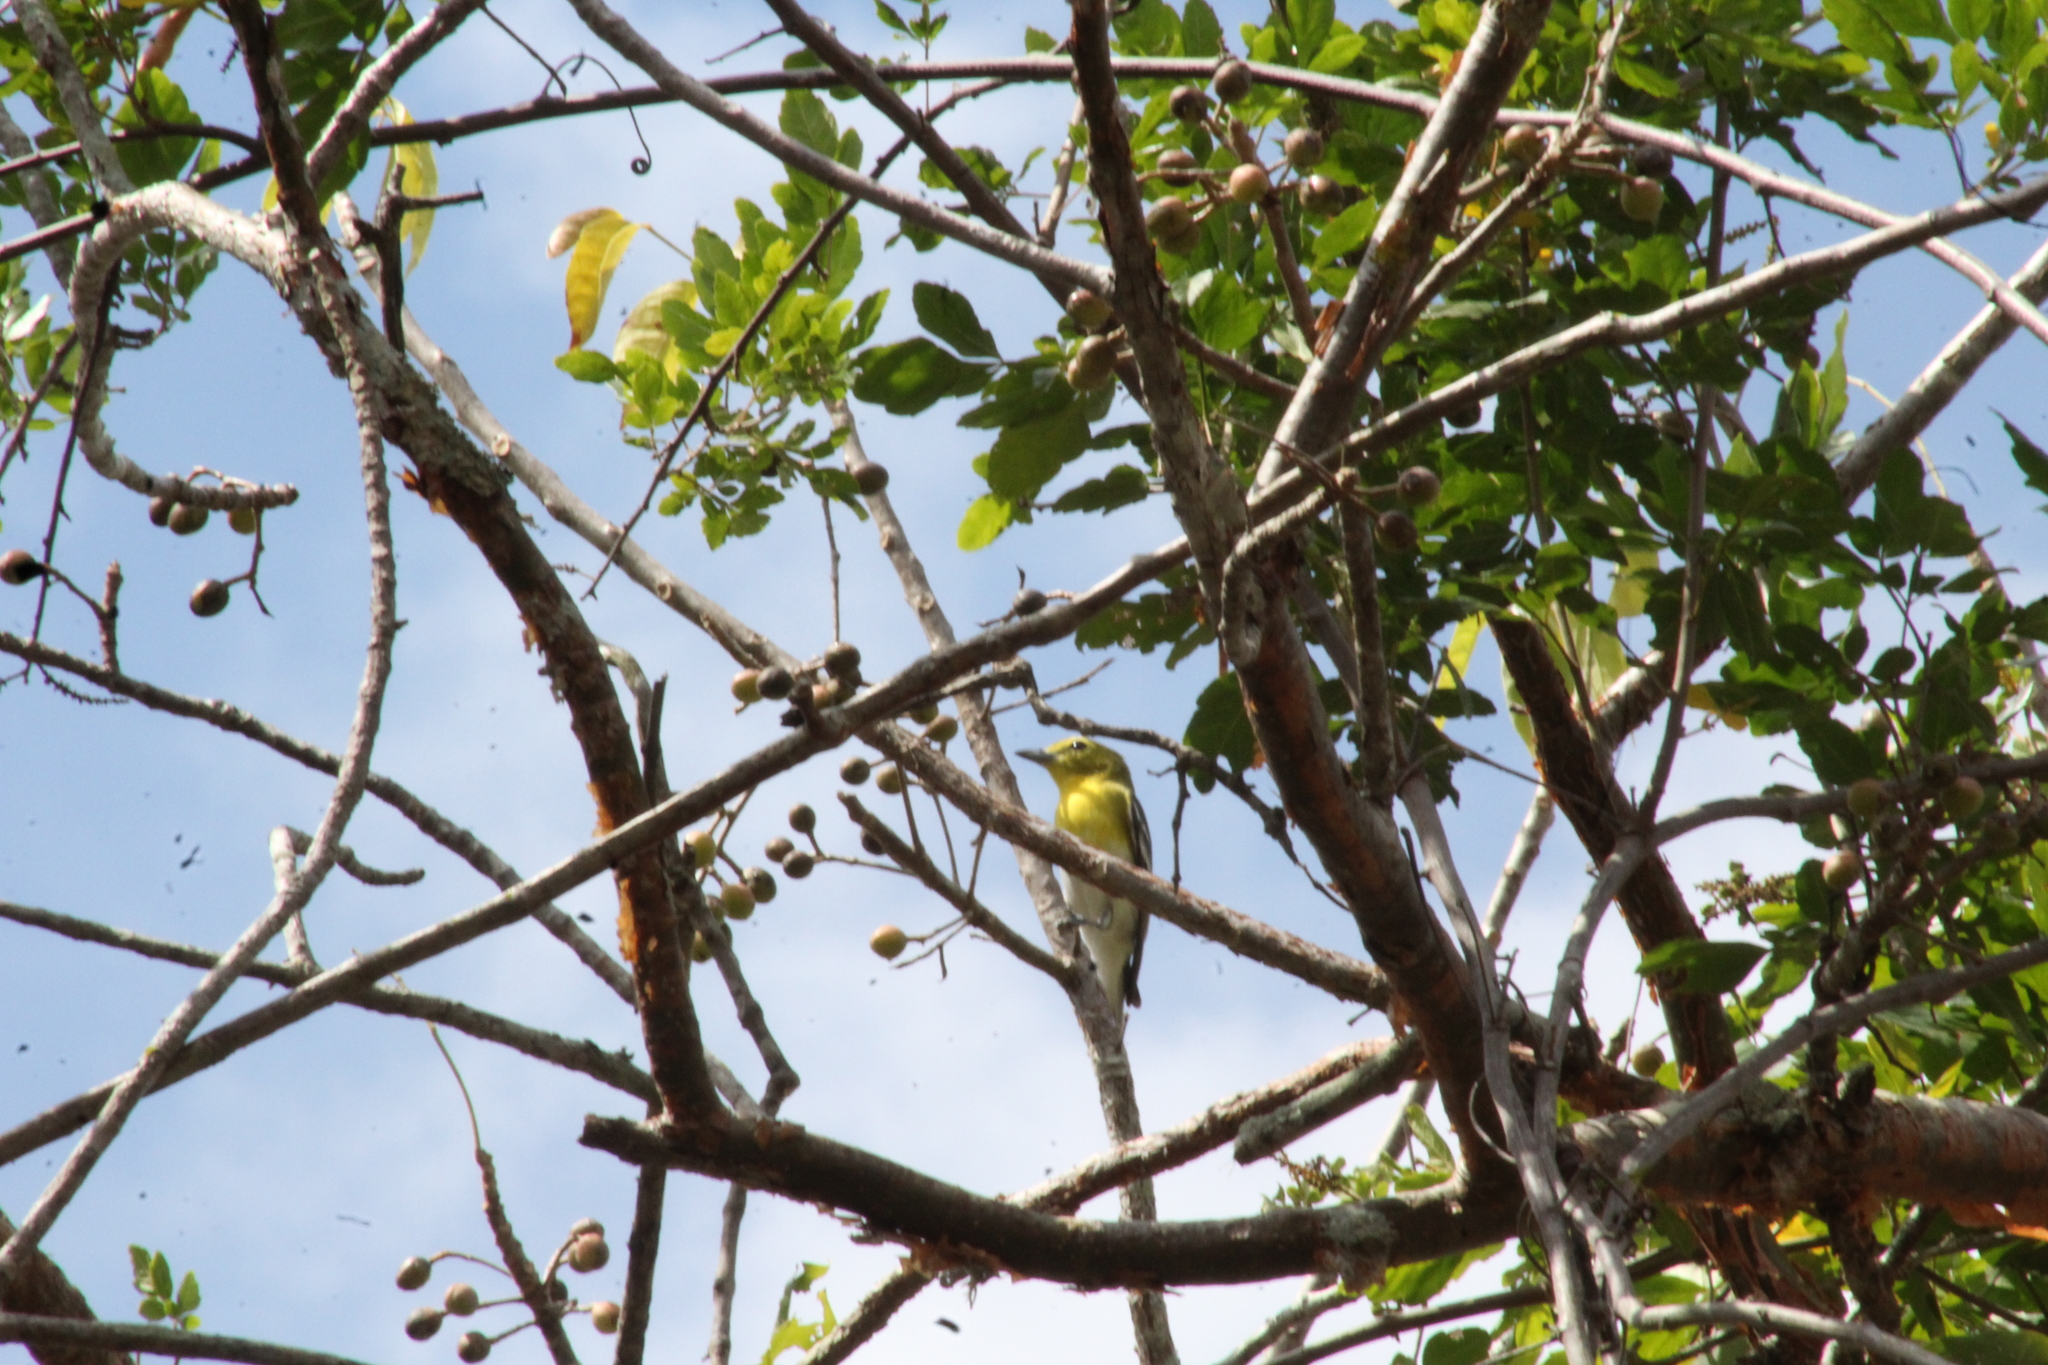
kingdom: Animalia
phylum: Chordata
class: Aves
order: Passeriformes
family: Vireonidae
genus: Vireo
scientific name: Vireo flavifrons
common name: Yellow-throated vireo
